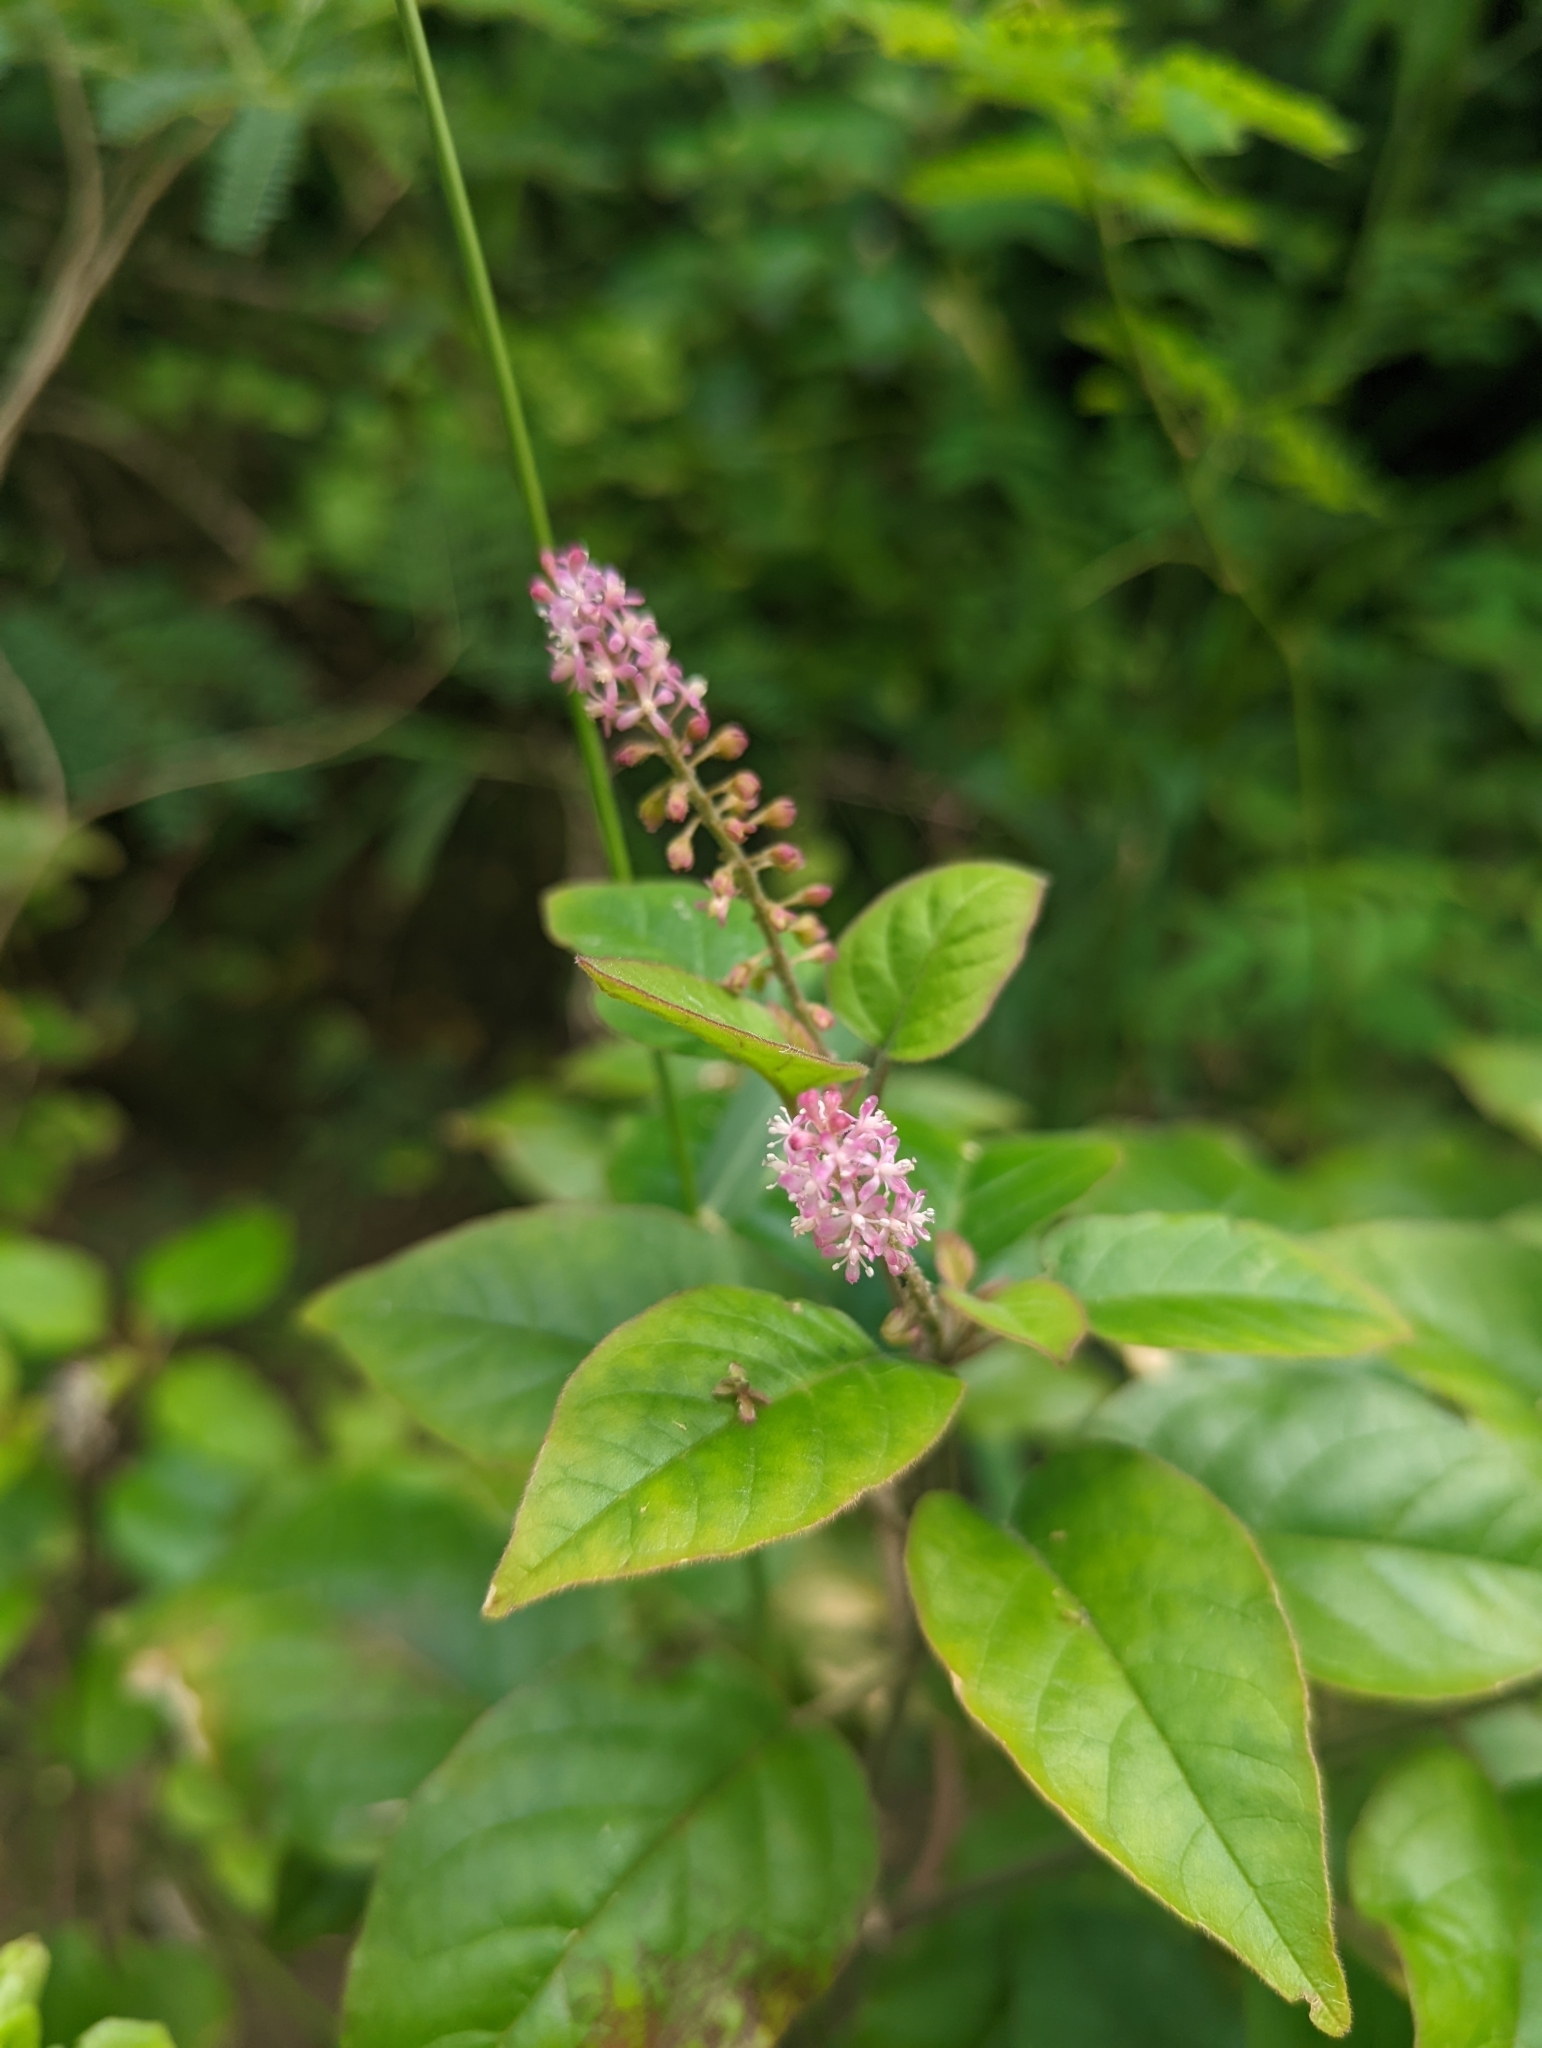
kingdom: Plantae
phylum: Tracheophyta
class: Magnoliopsida
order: Caryophyllales
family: Phytolaccaceae
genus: Rivina
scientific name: Rivina humilis
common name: Rougeplant
